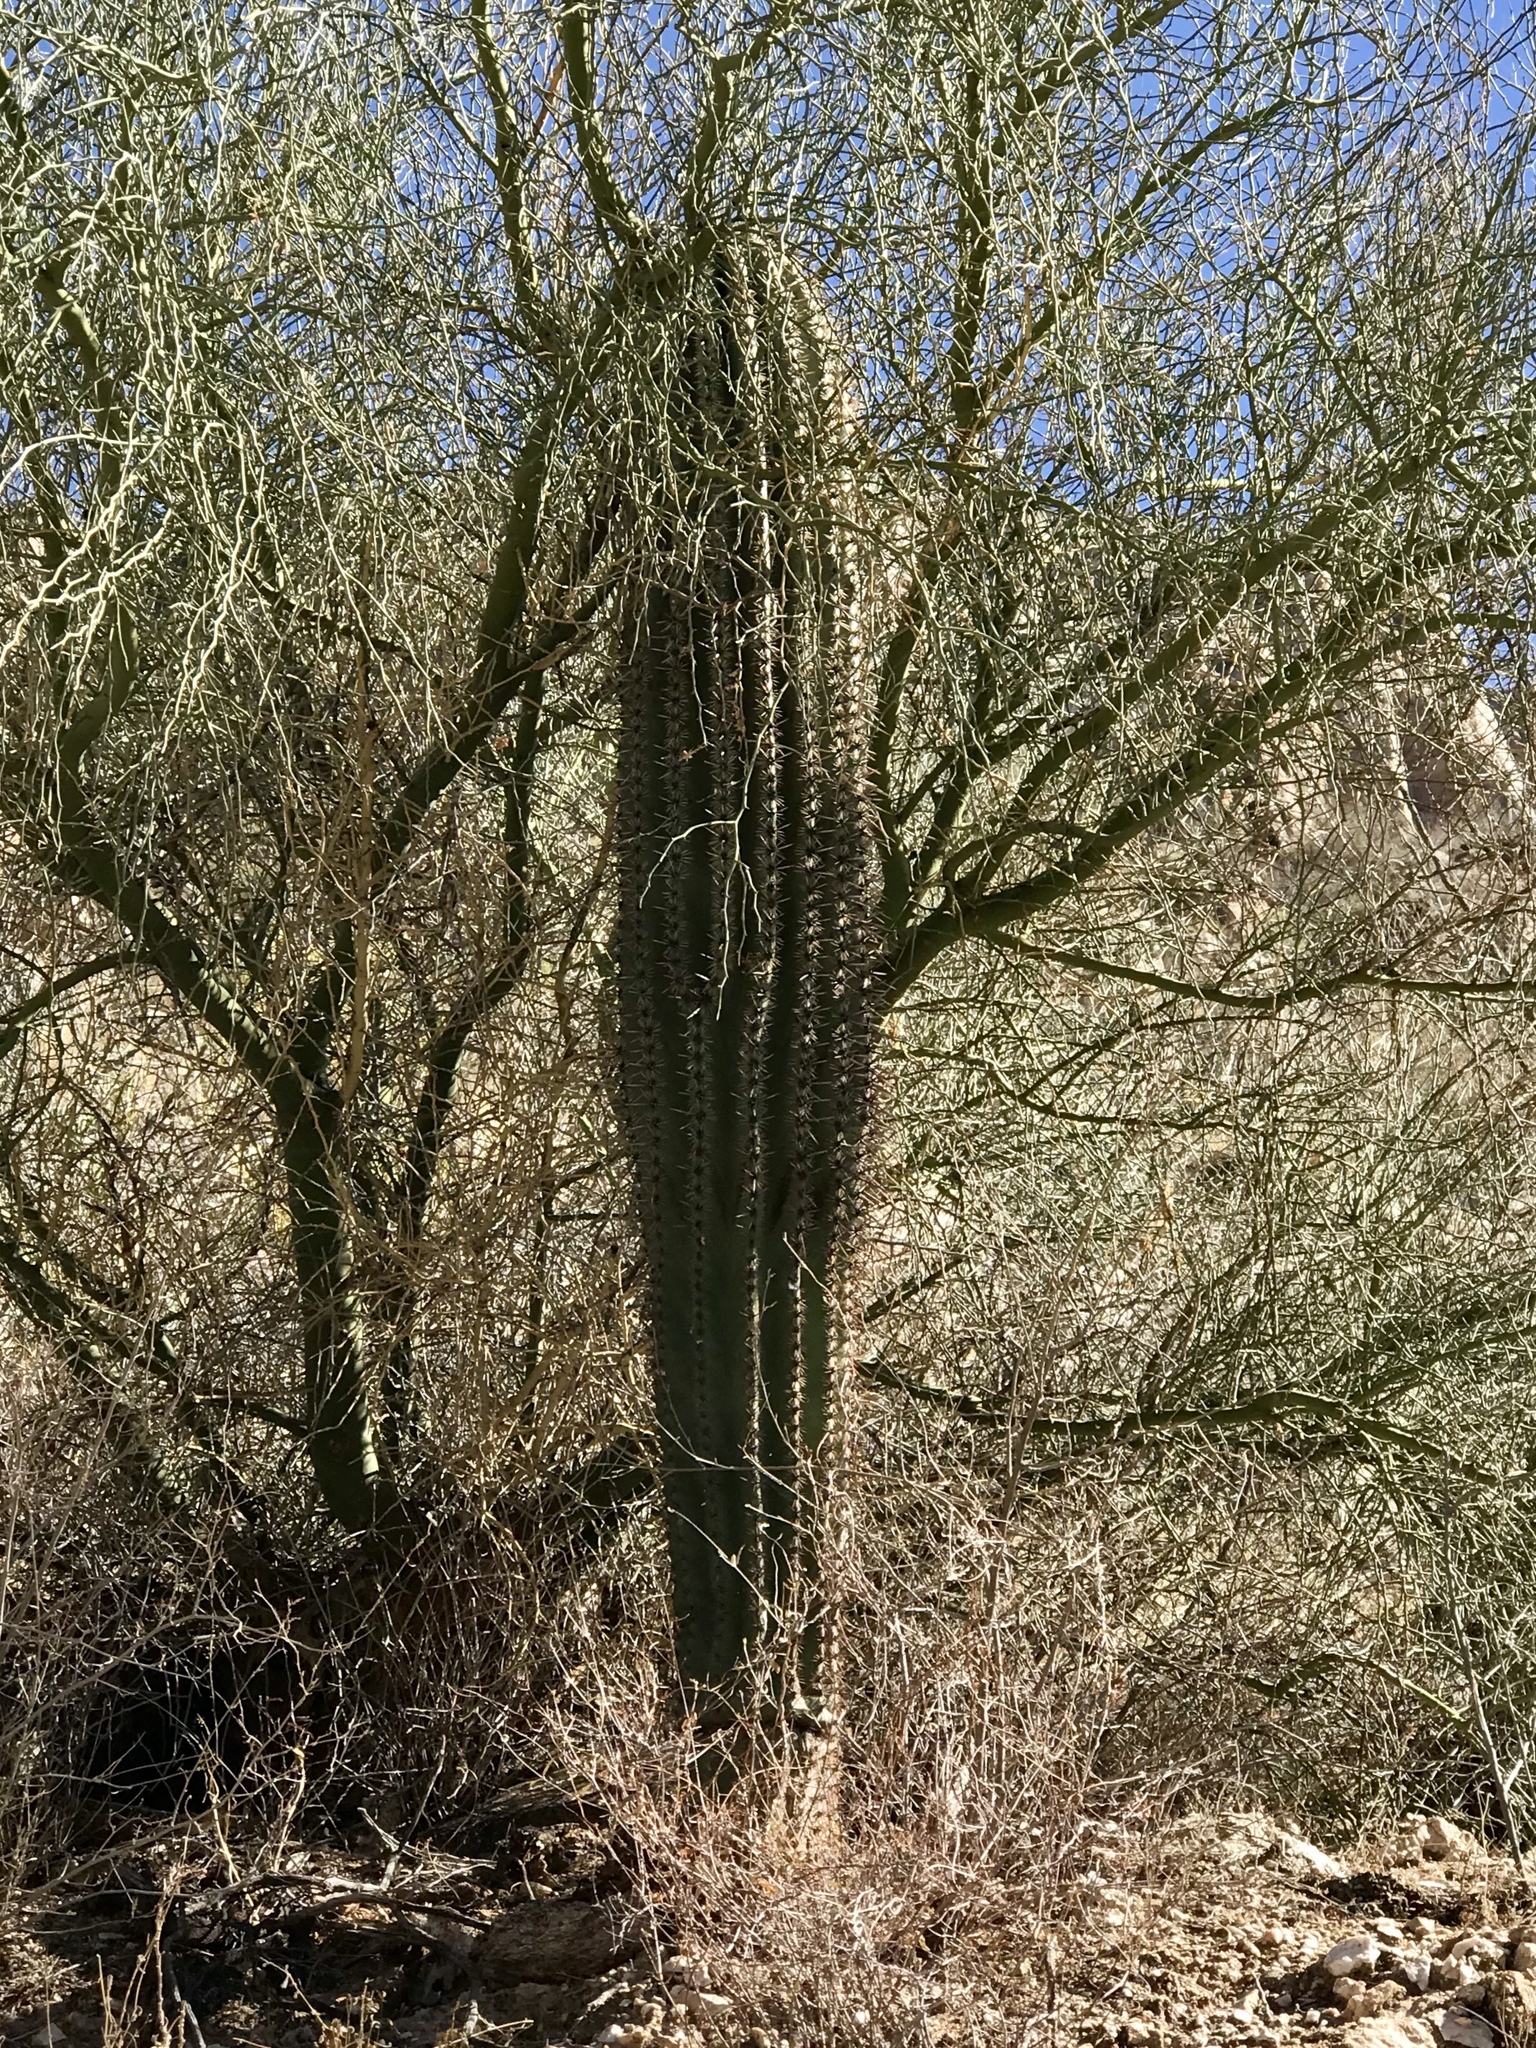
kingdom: Plantae
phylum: Tracheophyta
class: Magnoliopsida
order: Caryophyllales
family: Cactaceae
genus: Carnegiea
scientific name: Carnegiea gigantea
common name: Saguaro
